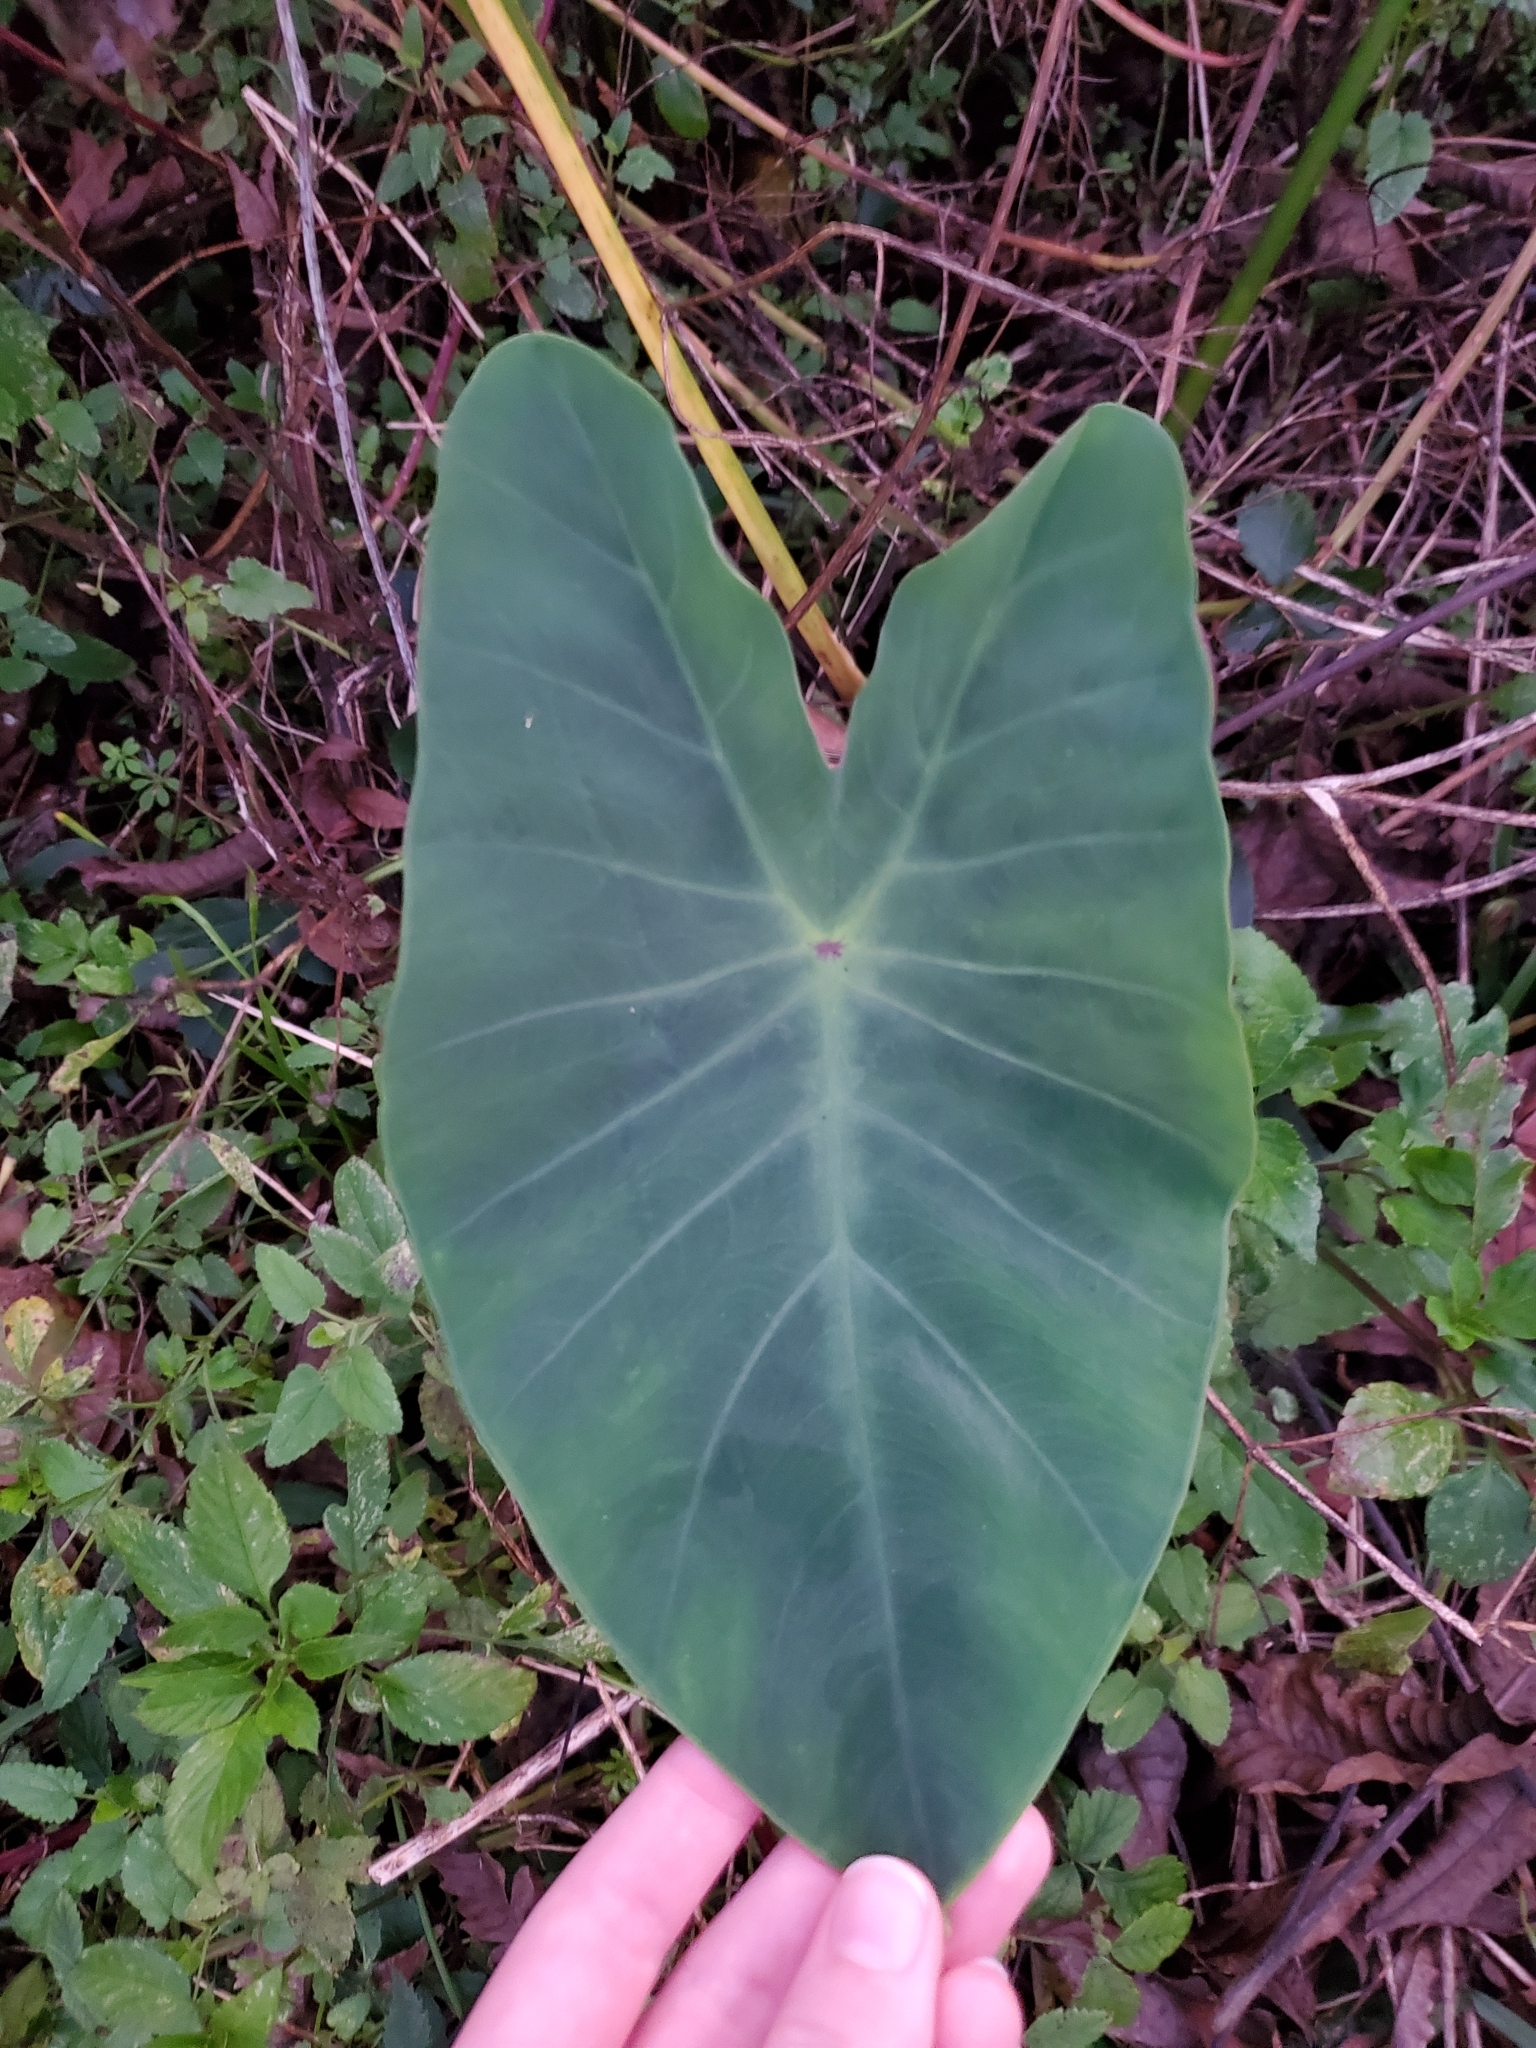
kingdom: Plantae
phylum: Tracheophyta
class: Liliopsida
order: Alismatales
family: Araceae
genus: Colocasia
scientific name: Colocasia esculenta
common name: Taro
